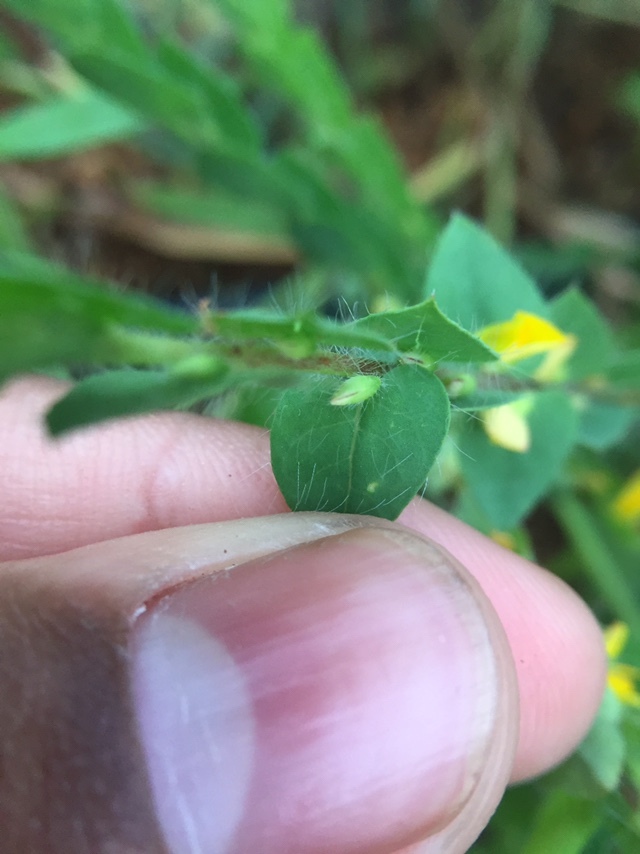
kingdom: Plantae
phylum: Tracheophyta
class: Magnoliopsida
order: Fabales
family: Fabaceae
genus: Crotalaria
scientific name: Crotalaria hebecarpa
